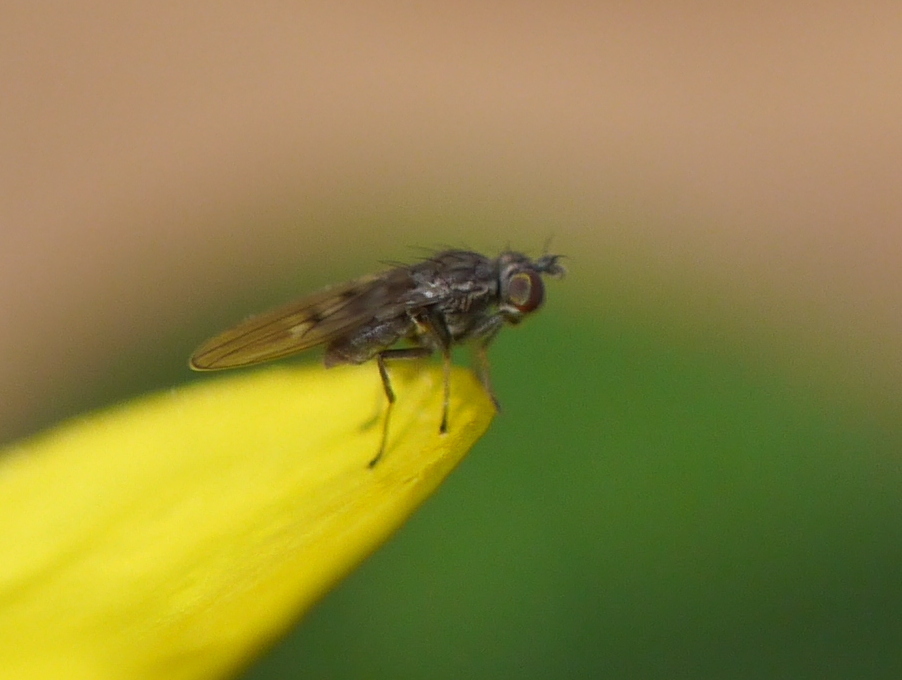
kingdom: Animalia
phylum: Arthropoda
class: Insecta
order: Diptera
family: Ephydridae
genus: Philygria
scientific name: Philygria debilis
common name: Brine fly
